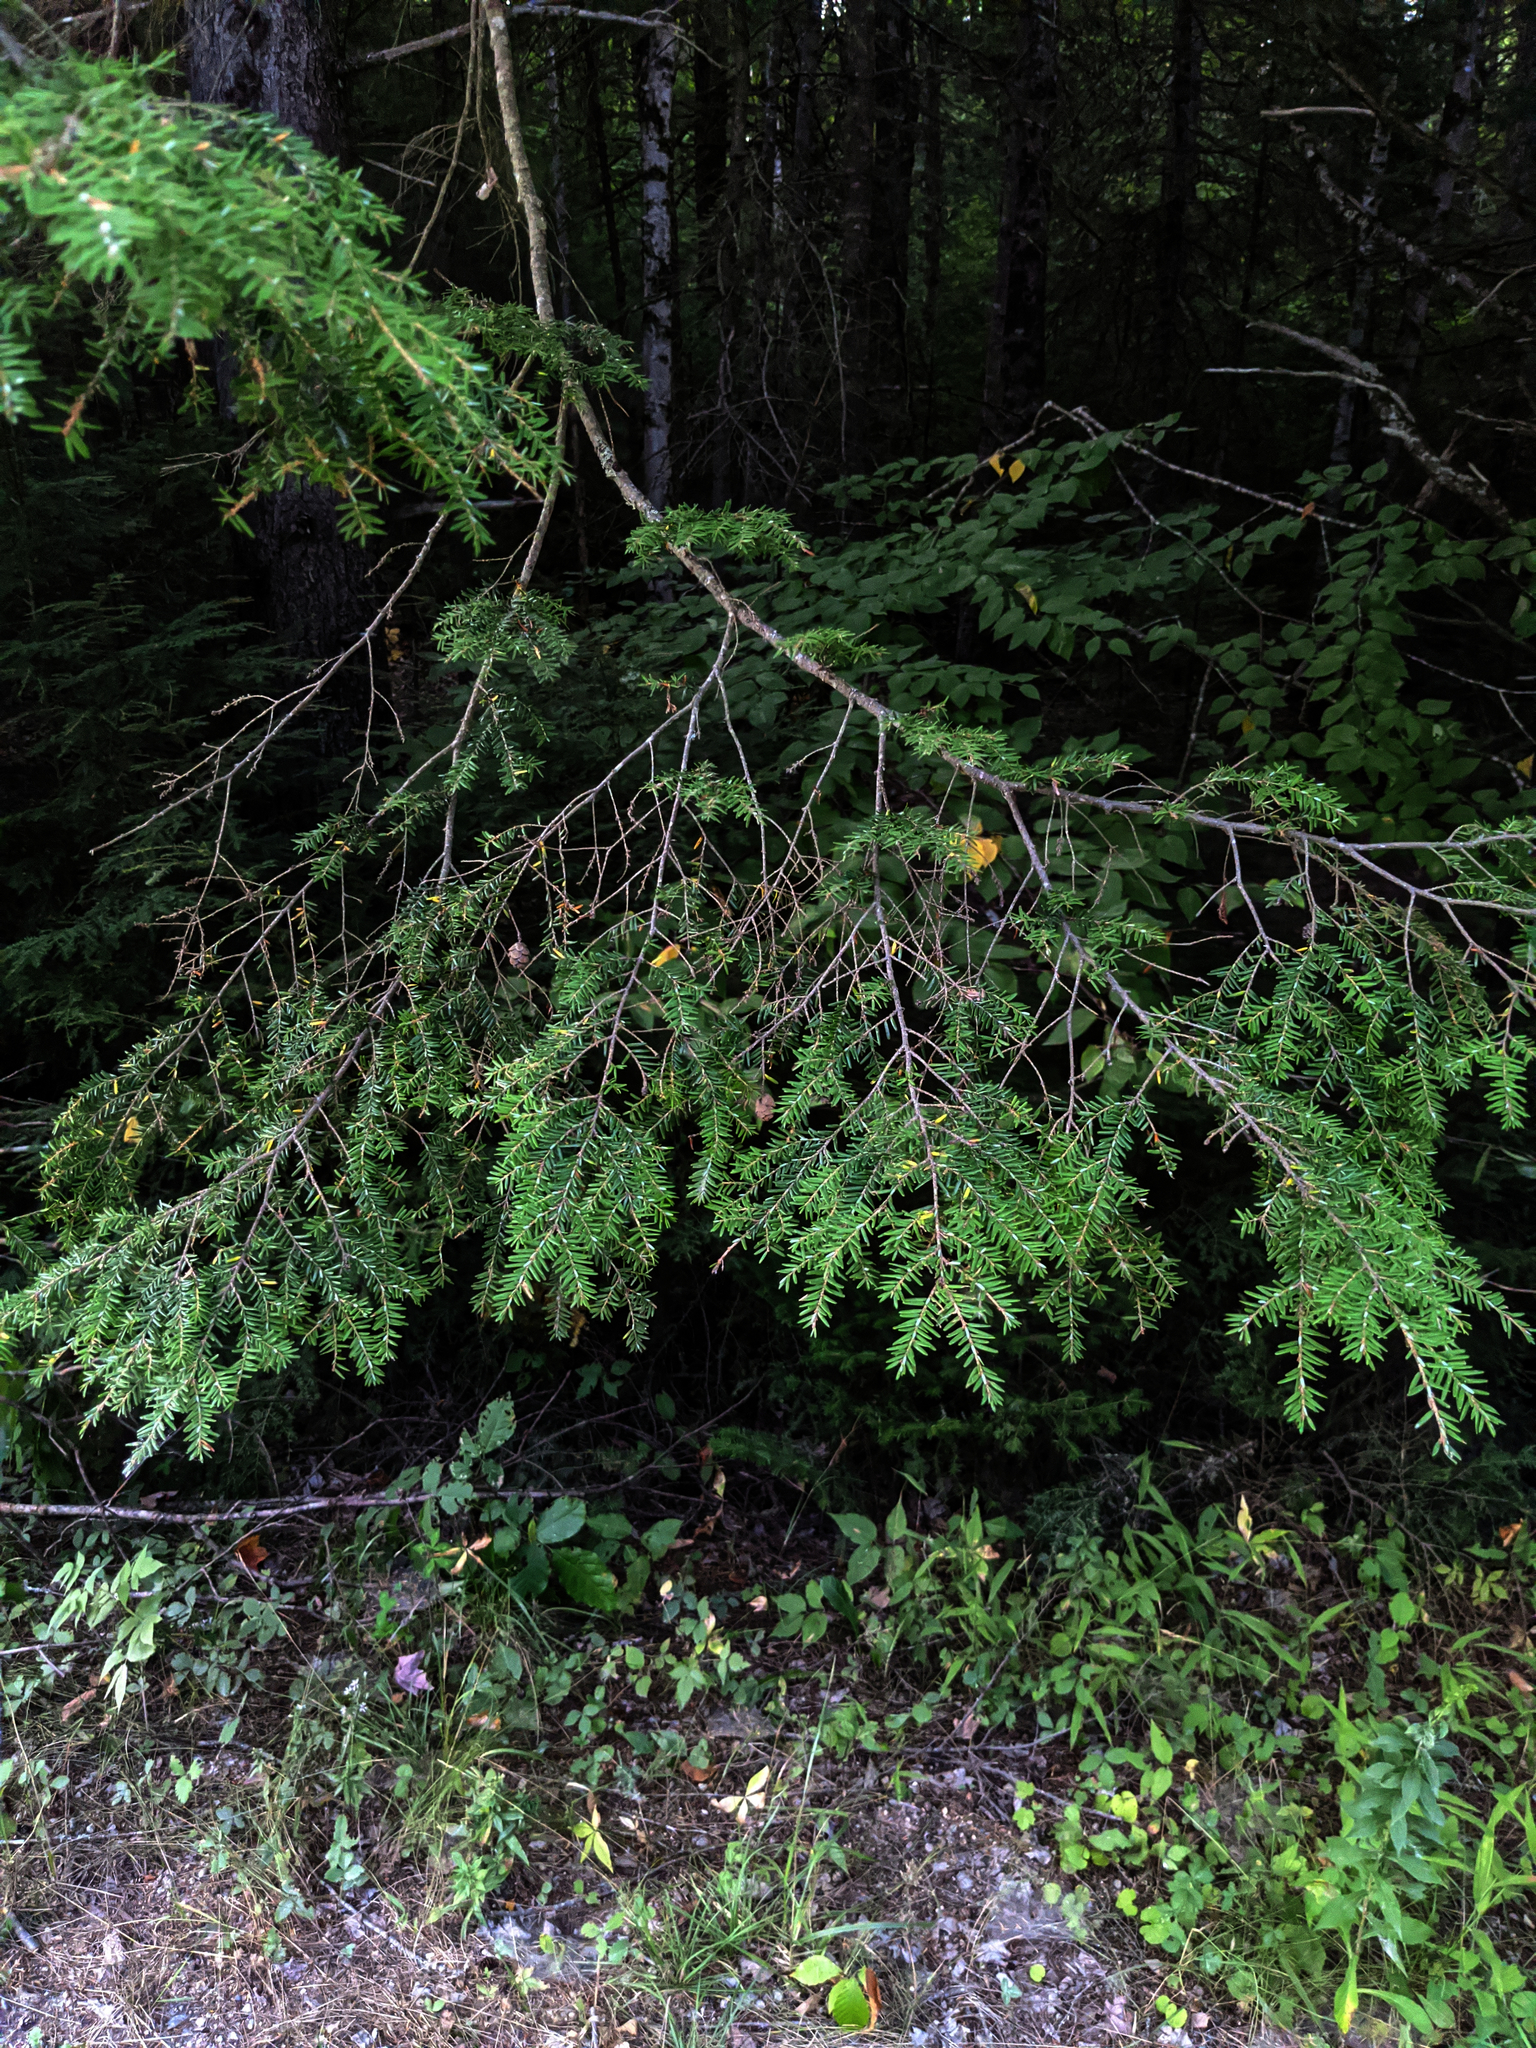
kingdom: Plantae
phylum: Tracheophyta
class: Pinopsida
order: Pinales
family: Pinaceae
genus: Tsuga
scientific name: Tsuga canadensis
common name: Eastern hemlock
